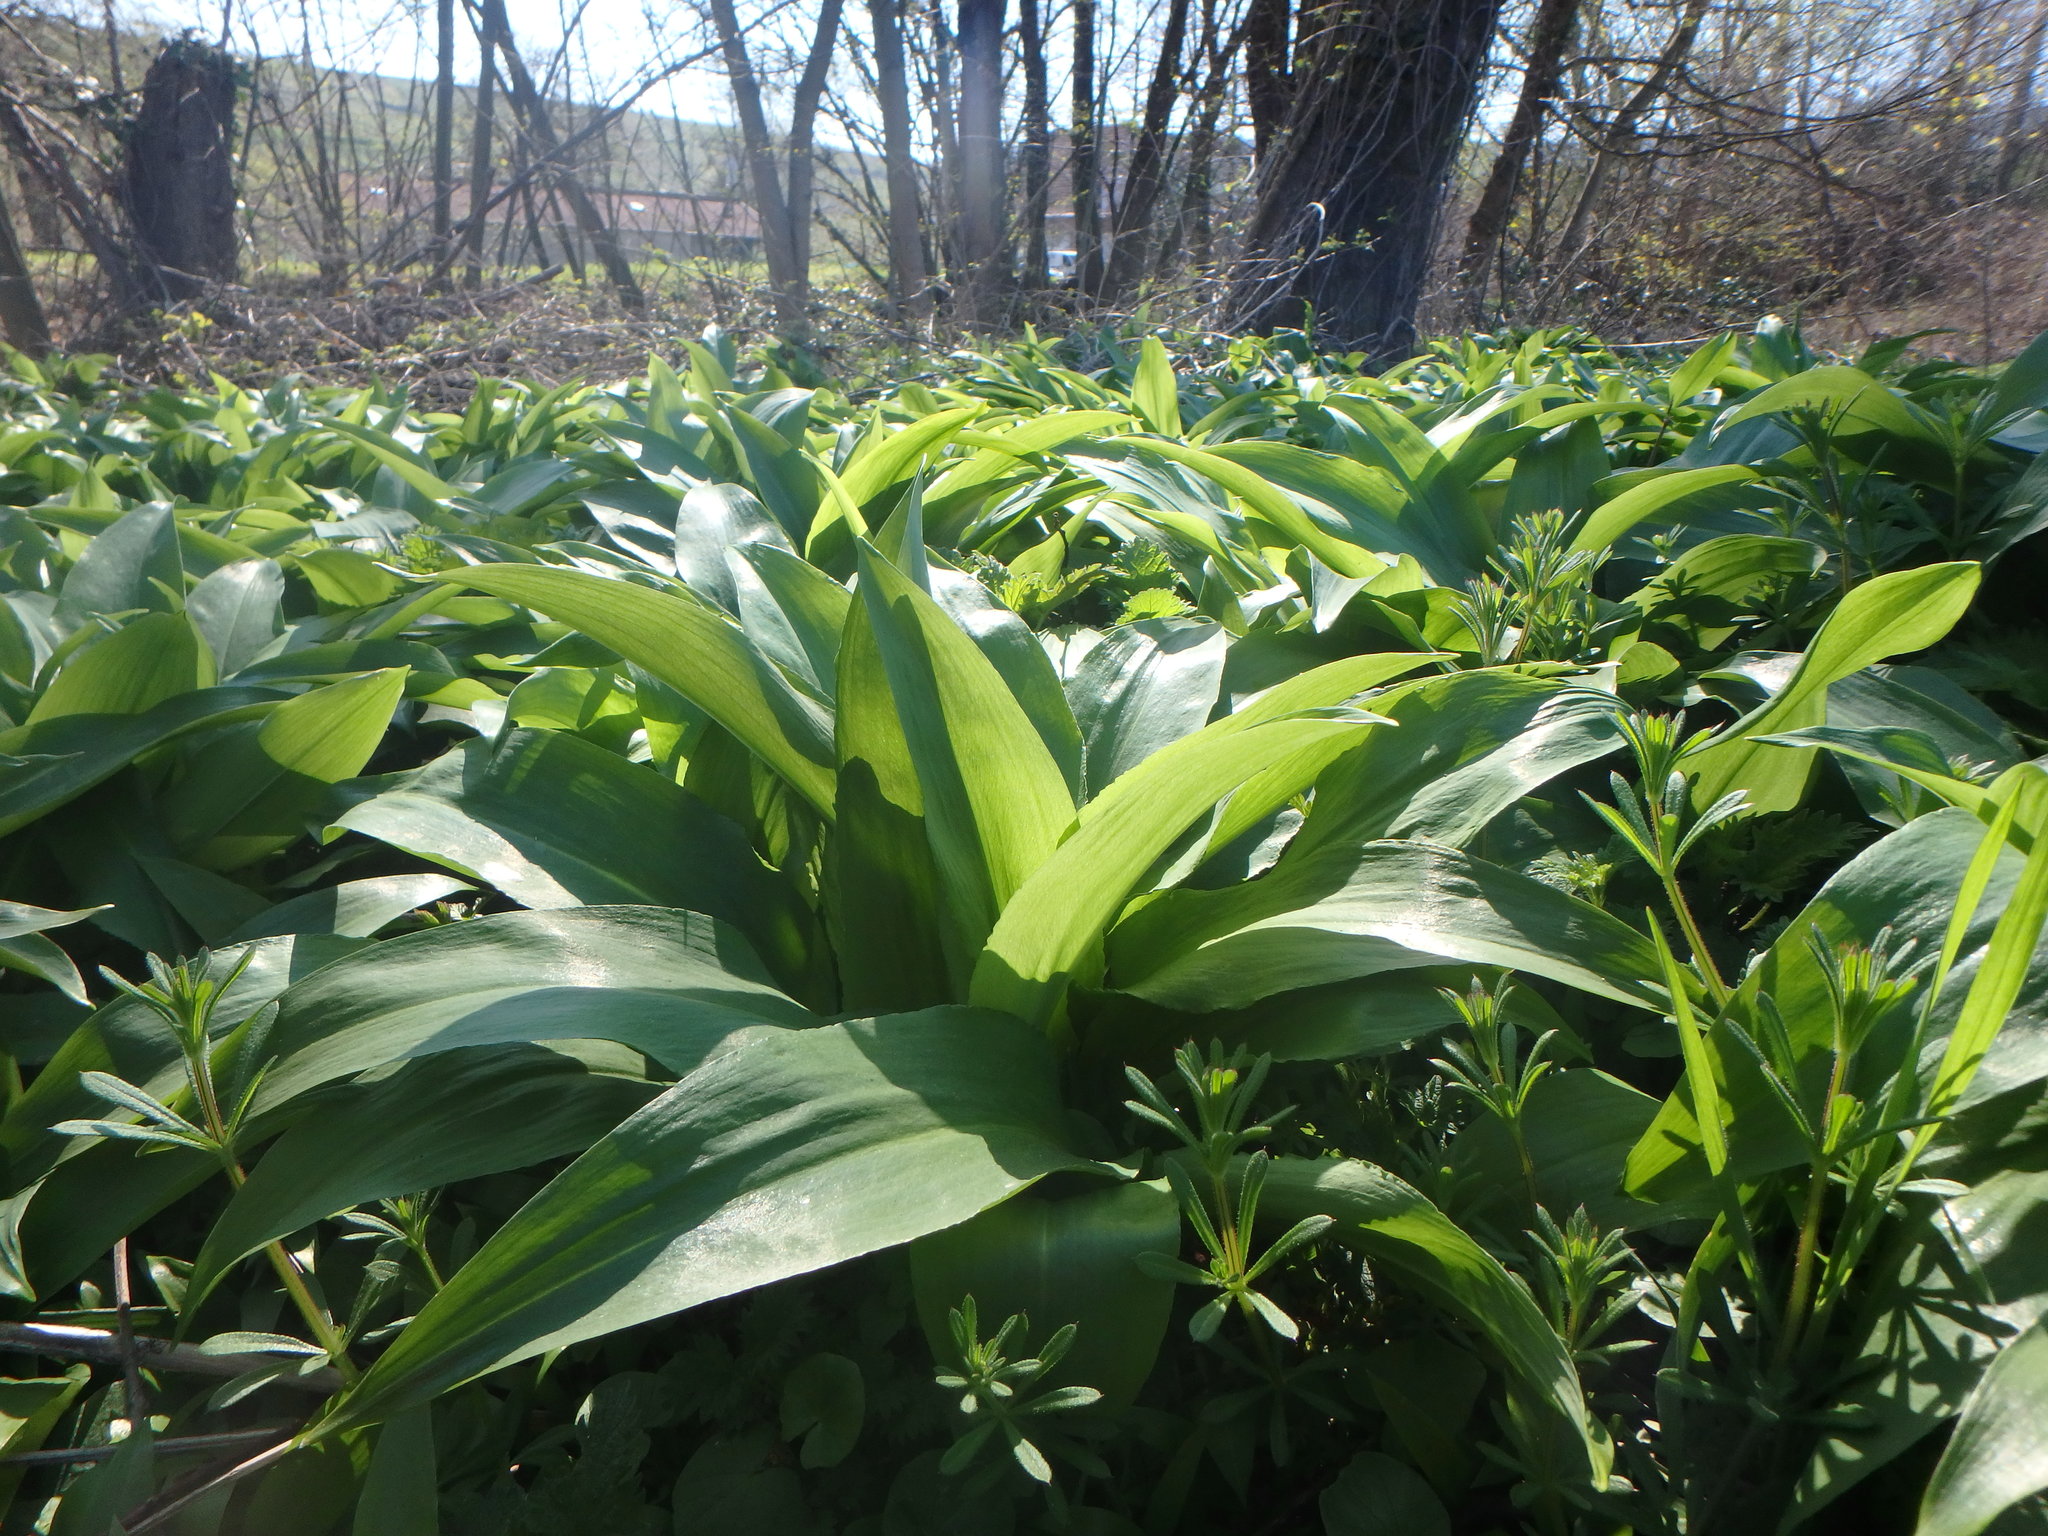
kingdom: Plantae
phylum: Tracheophyta
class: Liliopsida
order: Asparagales
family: Amaryllidaceae
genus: Allium
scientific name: Allium ursinum
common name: Ramsons
